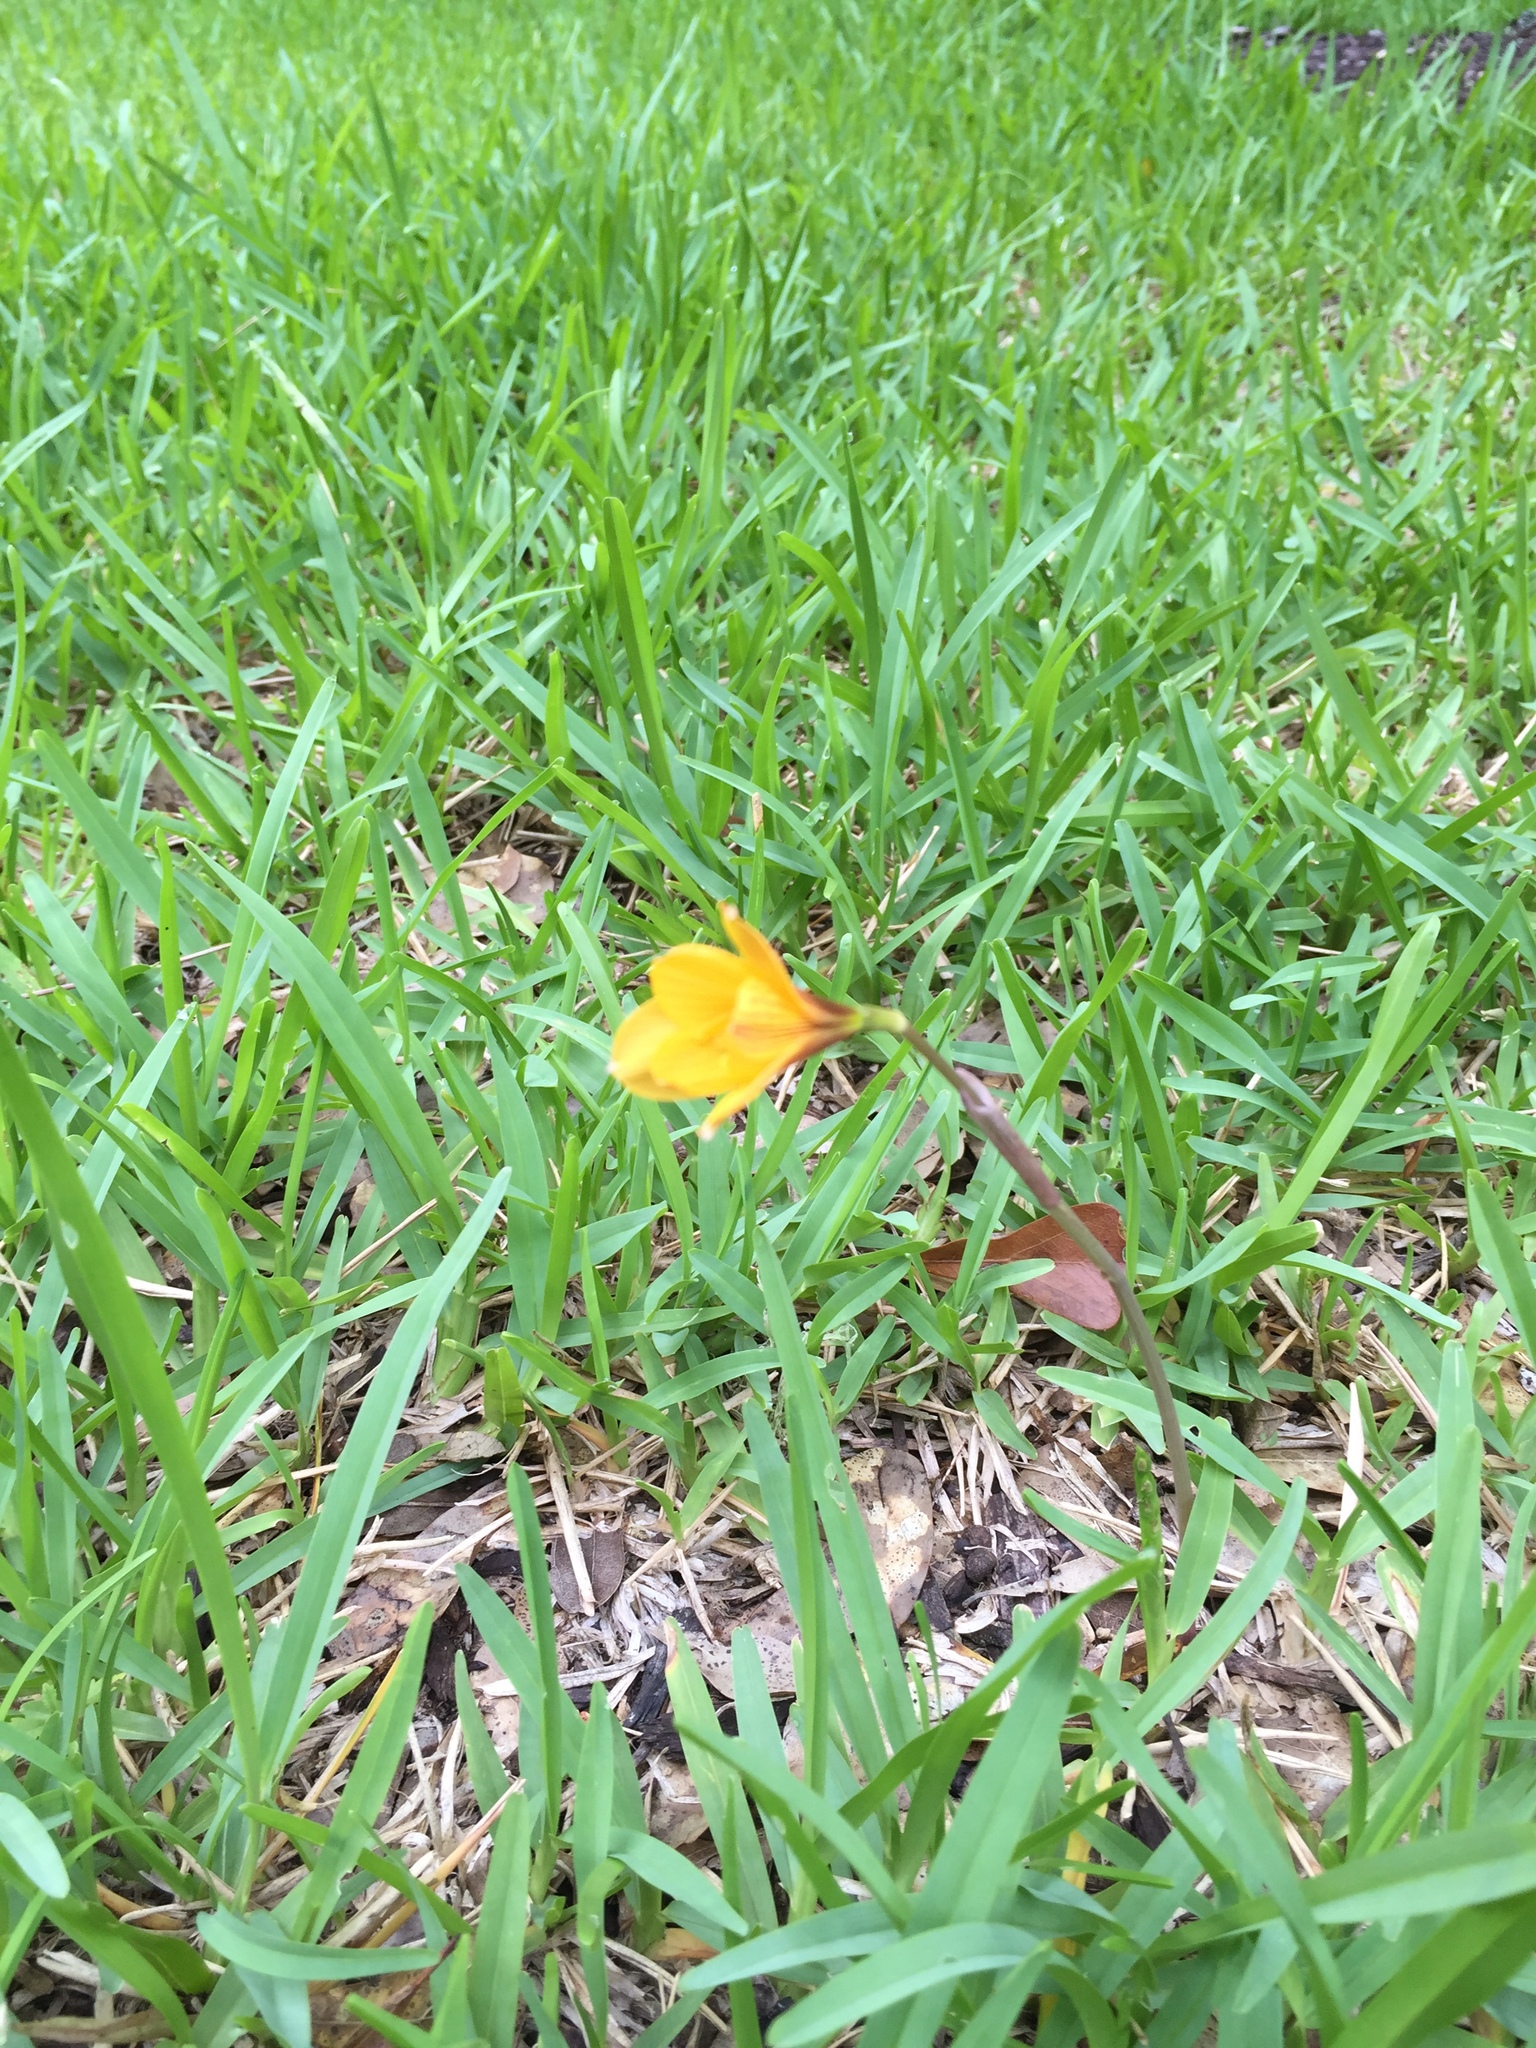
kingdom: Plantae
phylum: Tracheophyta
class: Liliopsida
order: Asparagales
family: Amaryllidaceae
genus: Zephyranthes
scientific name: Zephyranthes tubispatha
